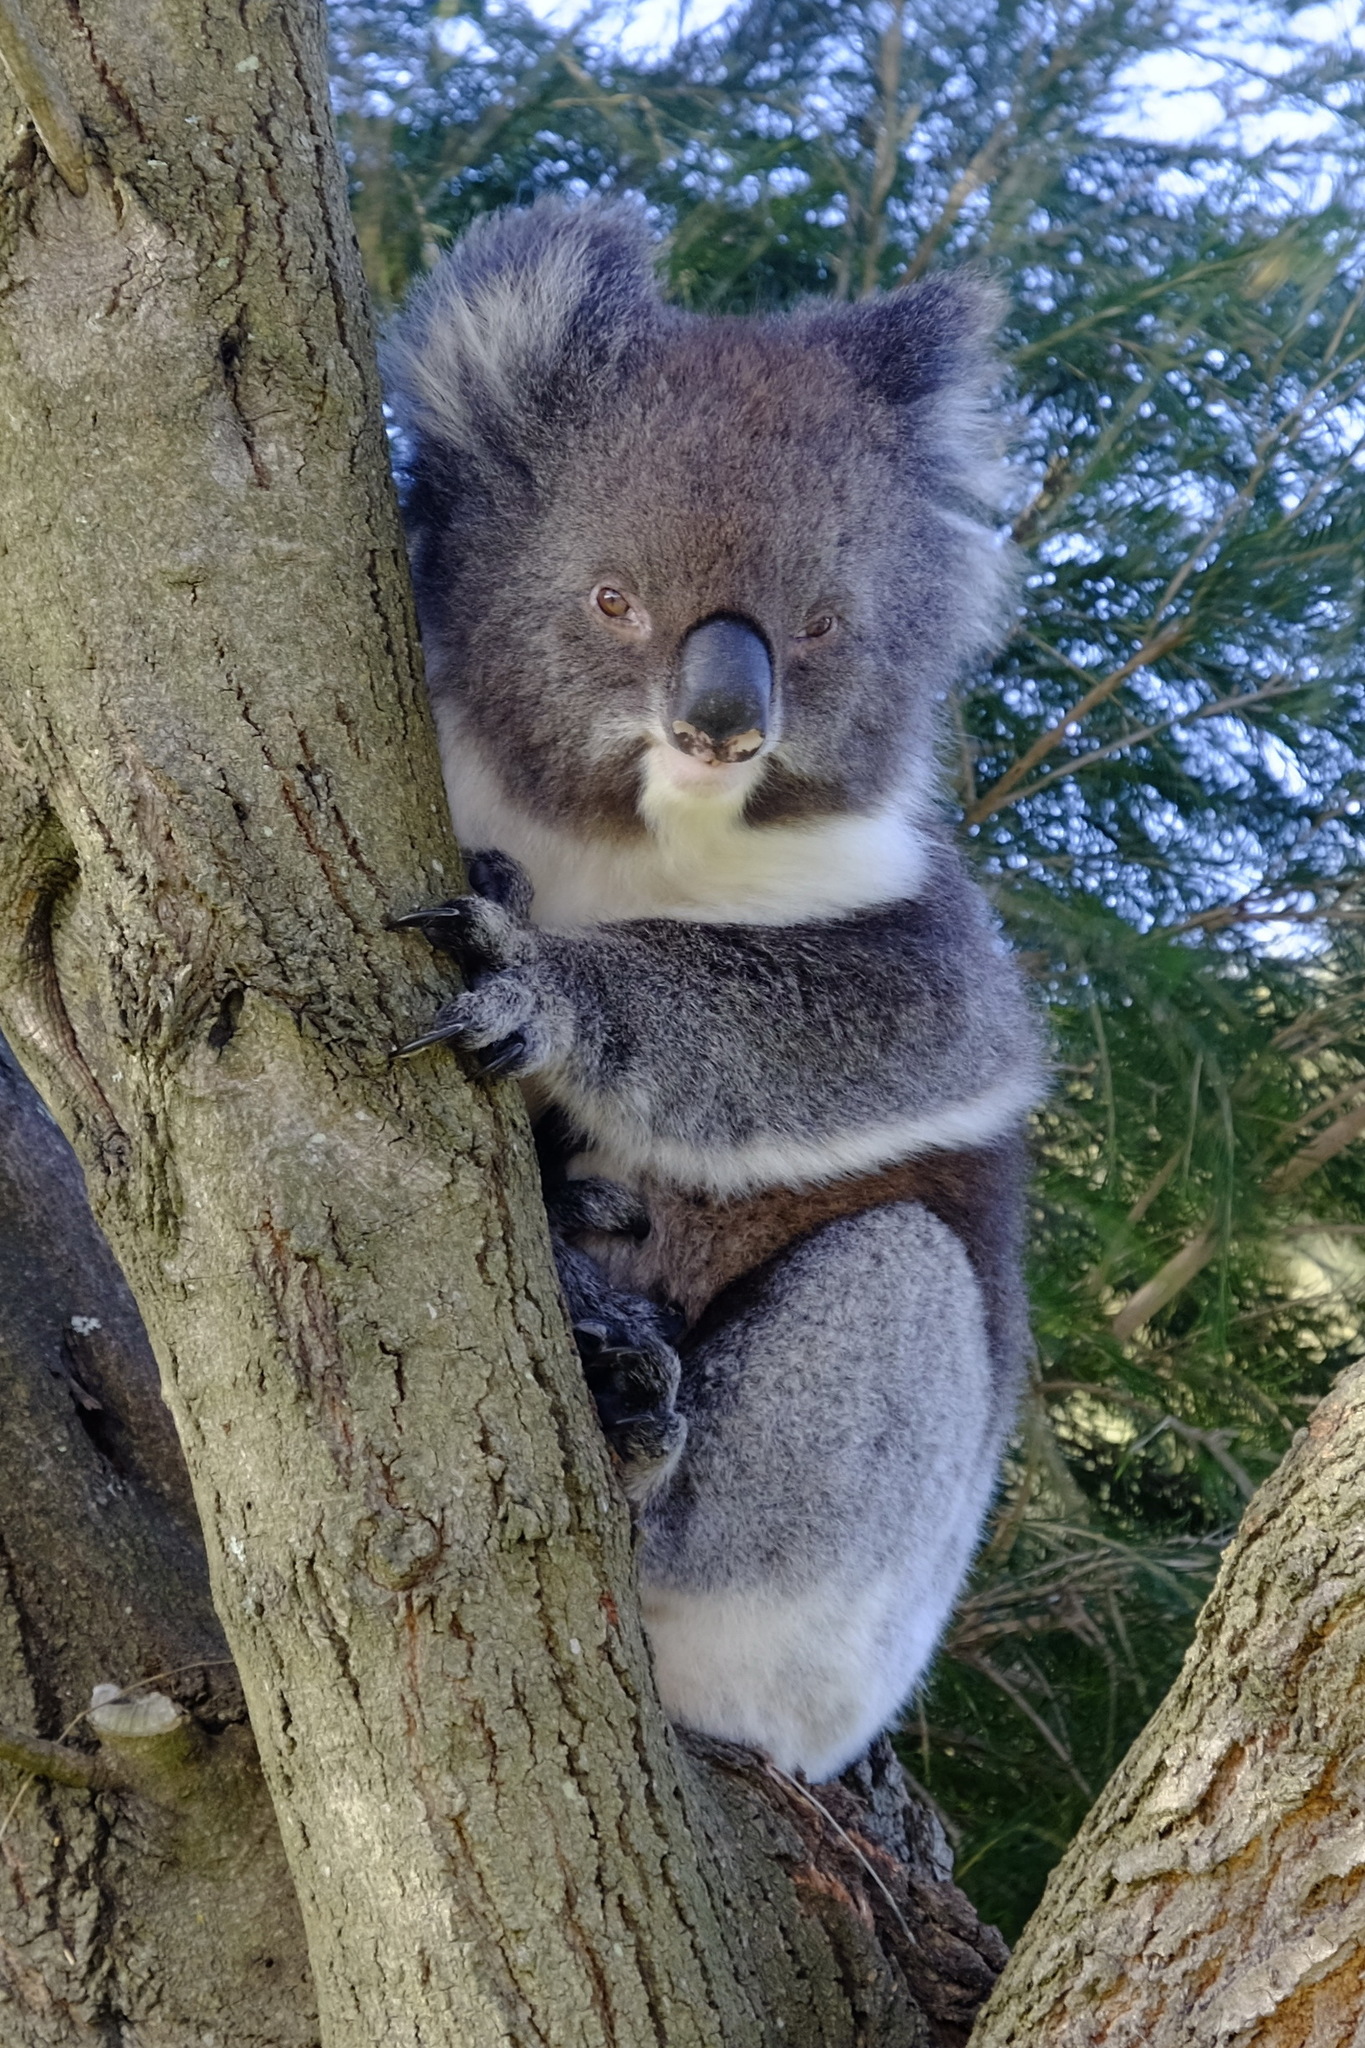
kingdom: Animalia
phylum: Chordata
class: Mammalia
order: Diprotodontia
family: Phascolarctidae
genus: Phascolarctos
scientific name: Phascolarctos cinereus
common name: Koala
